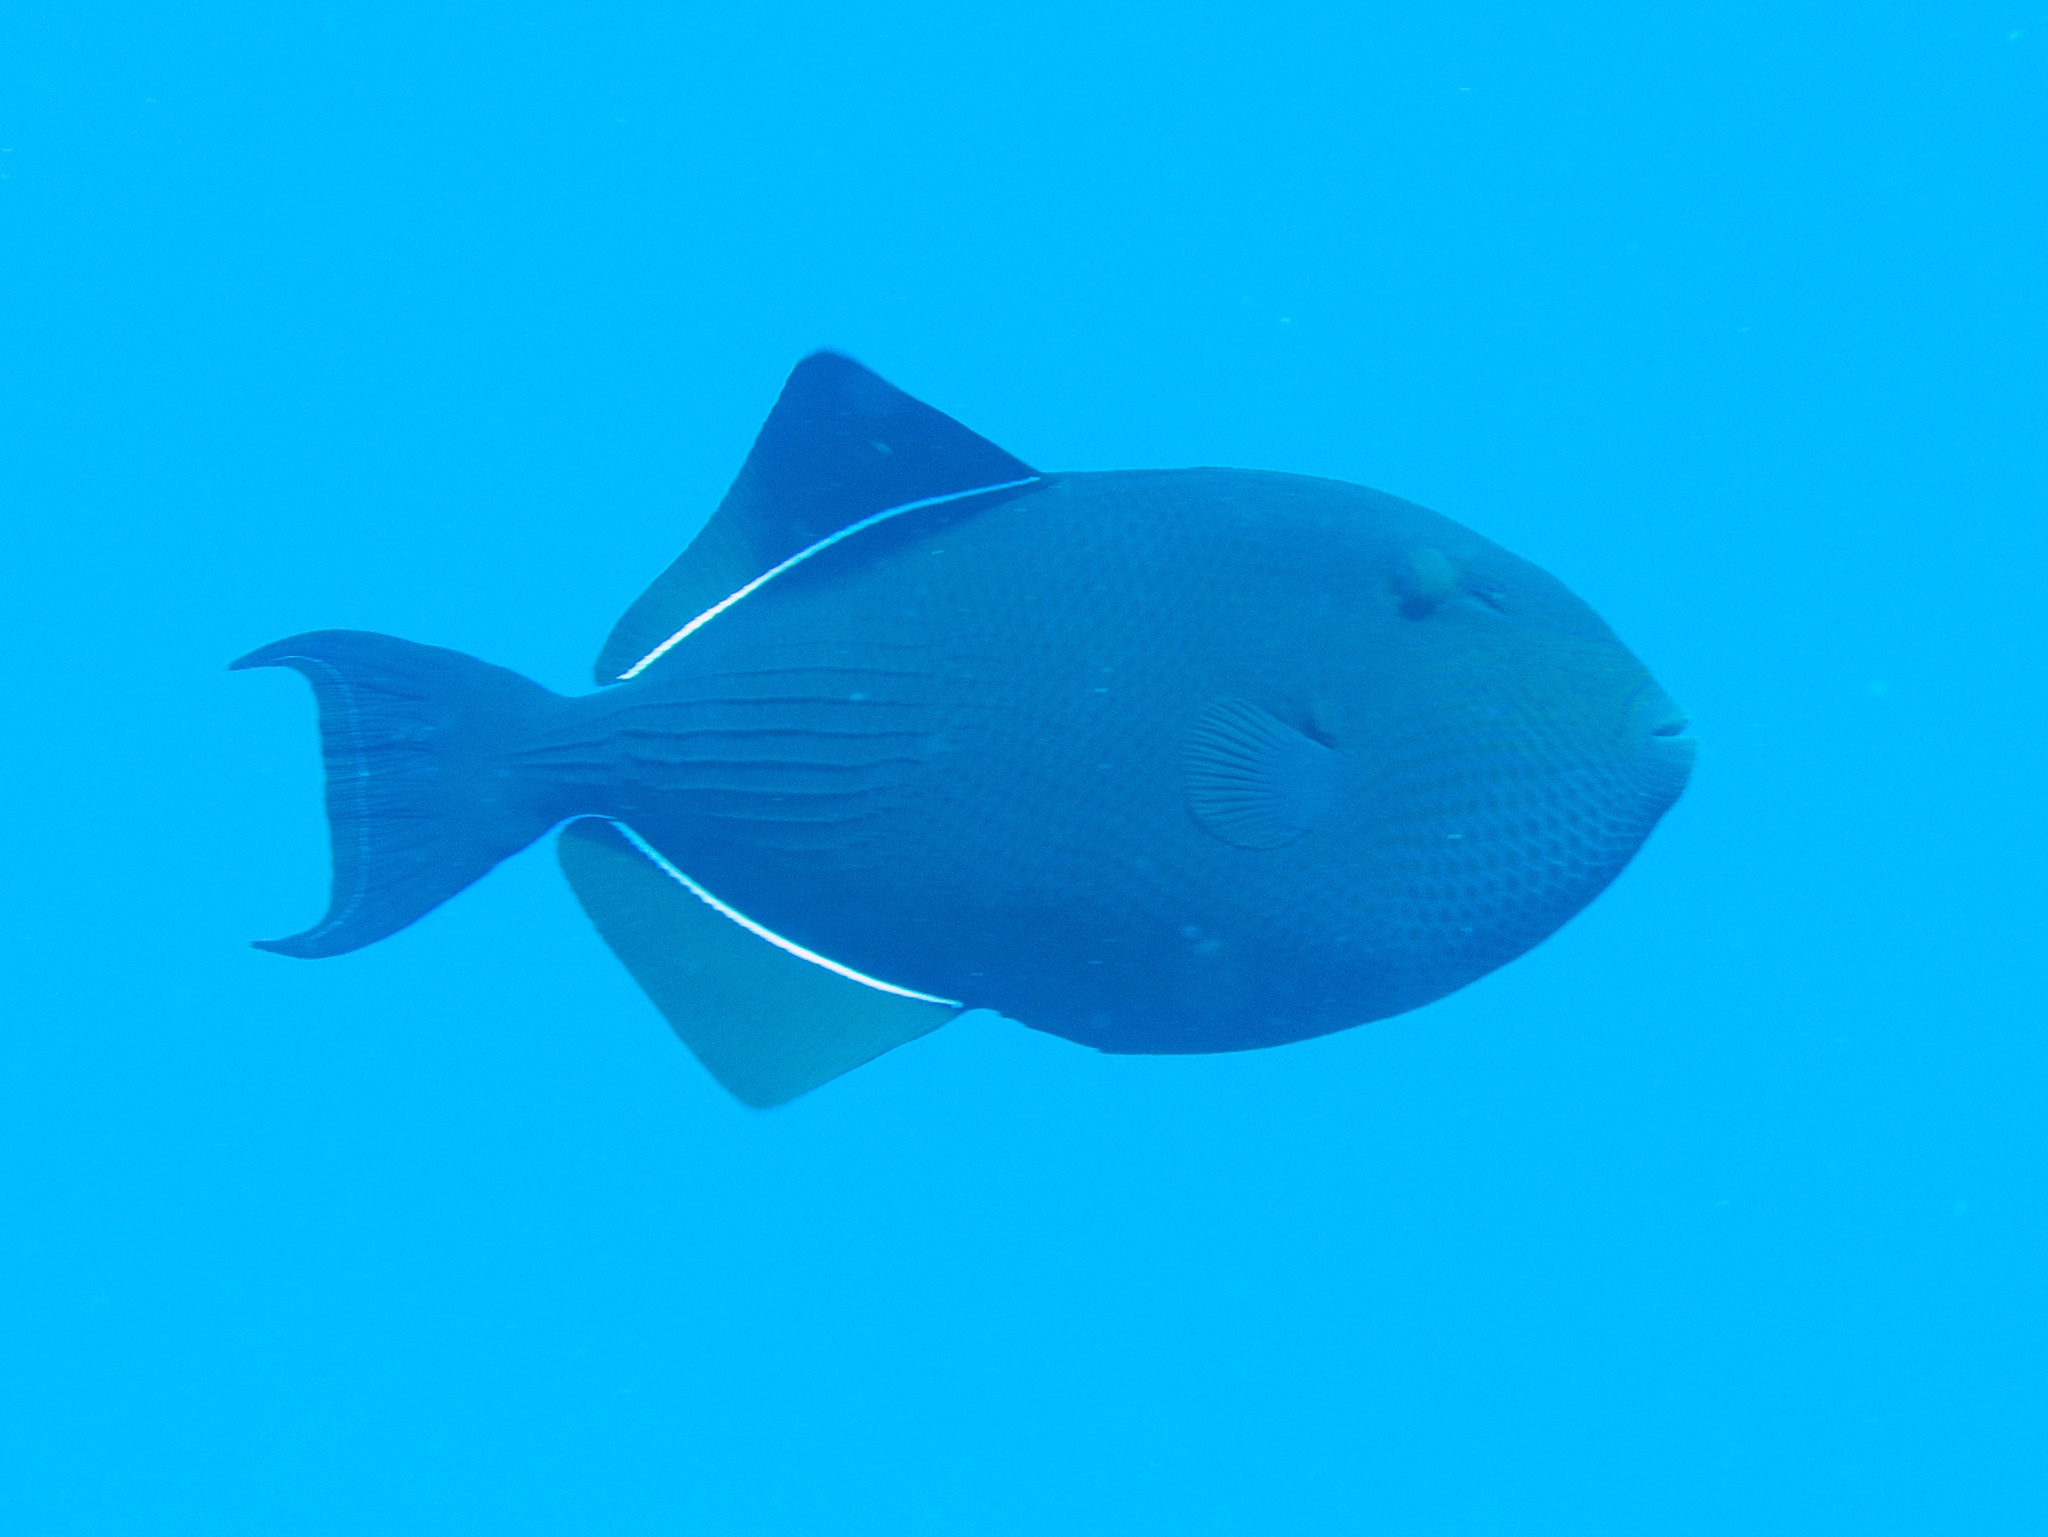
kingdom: Animalia
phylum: Chordata
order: Tetraodontiformes
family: Balistidae
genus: Melichthys
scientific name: Melichthys niger
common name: Black durgon
